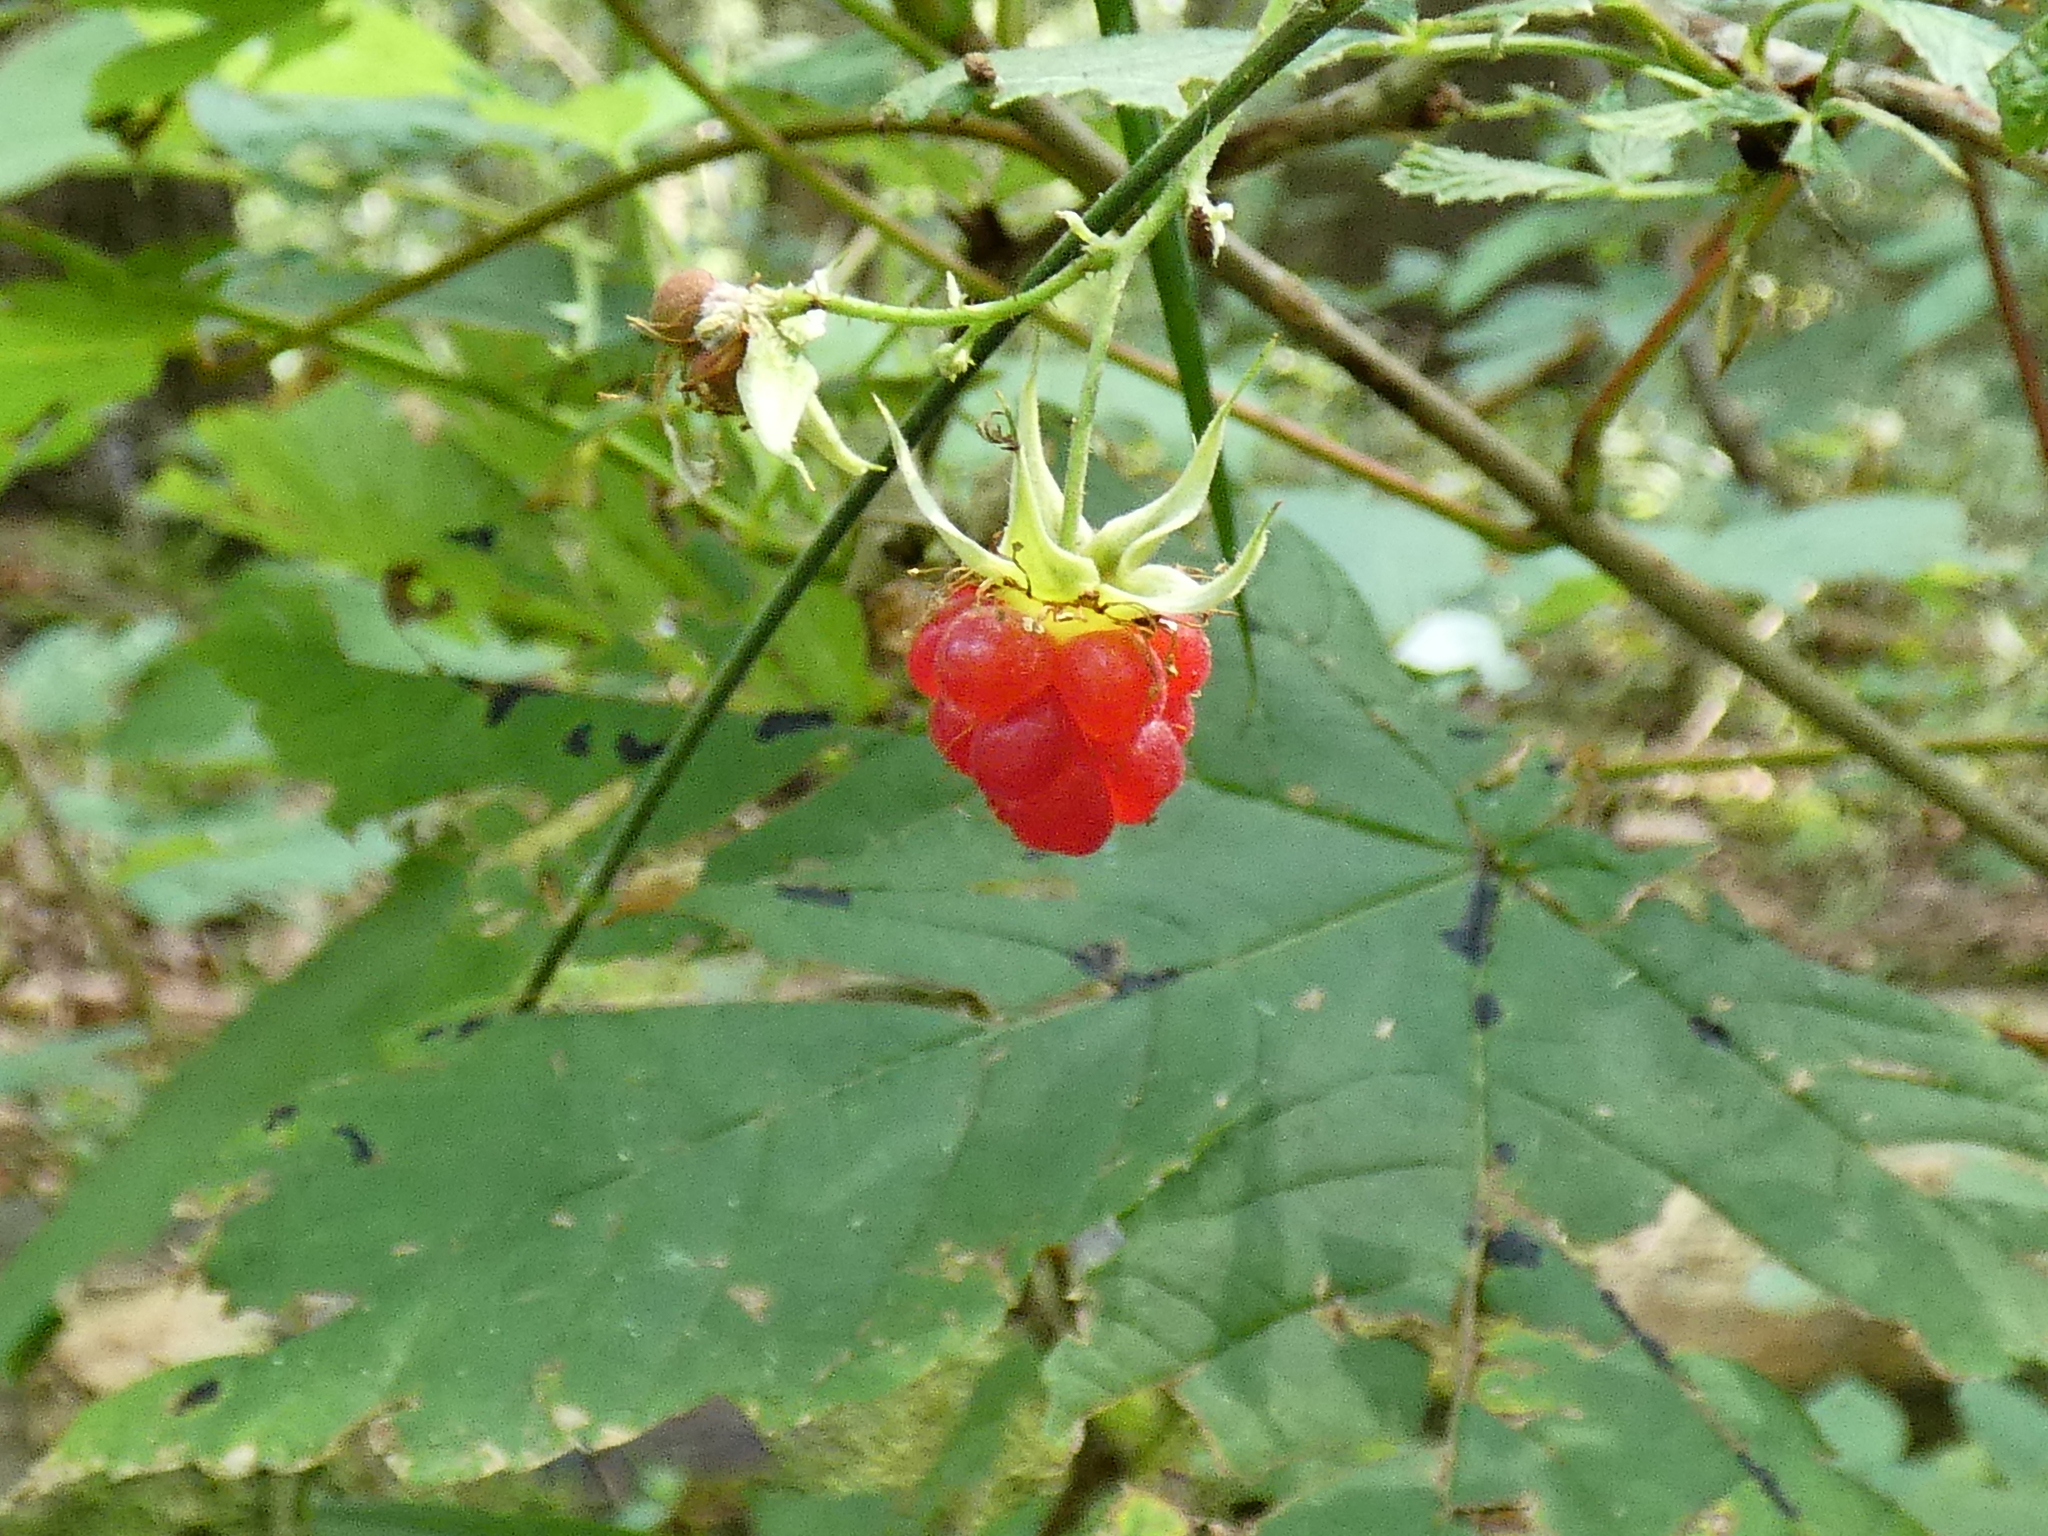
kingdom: Plantae
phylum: Tracheophyta
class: Magnoliopsida
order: Rosales
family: Rosaceae
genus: Rubus
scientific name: Rubus idaeus
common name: Raspberry
